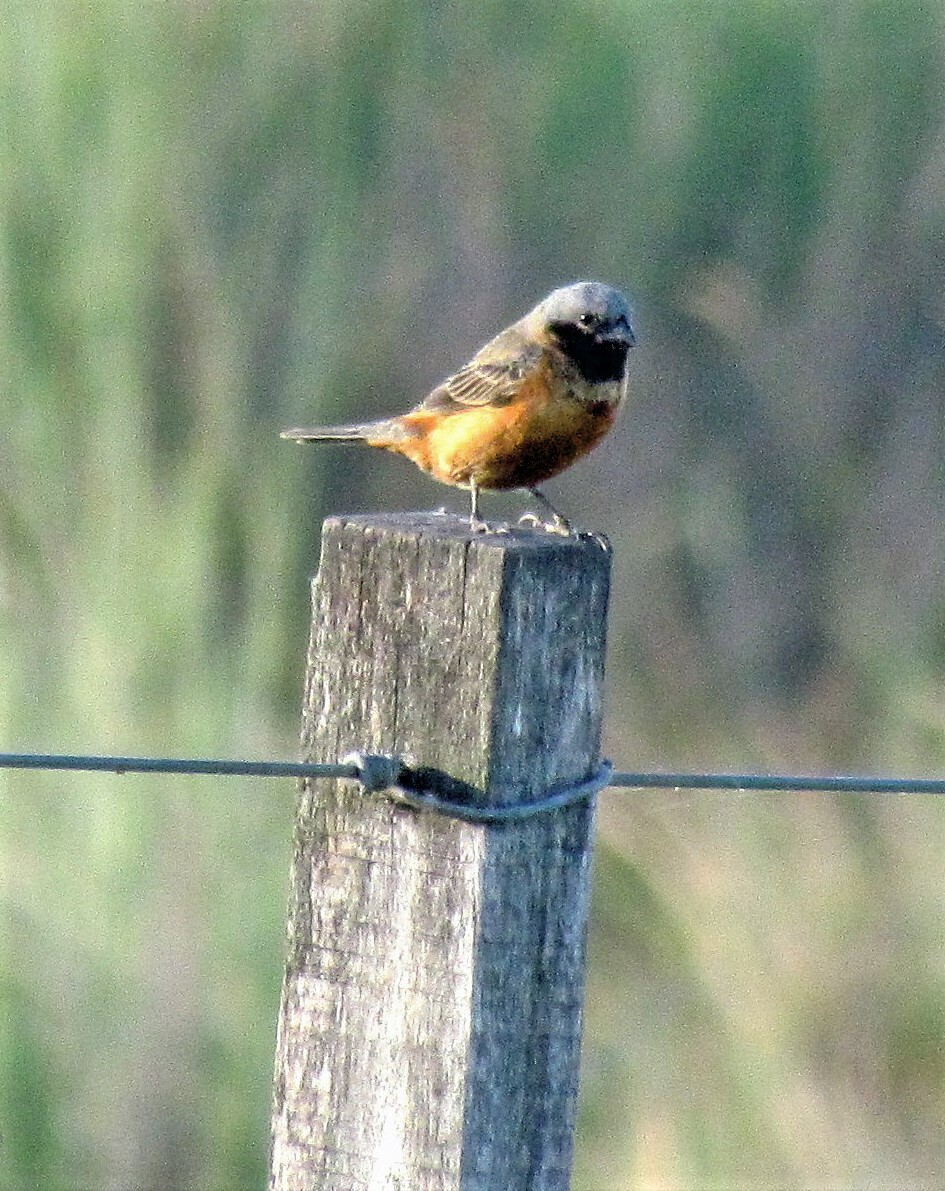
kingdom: Animalia
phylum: Chordata
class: Aves
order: Passeriformes
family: Thraupidae
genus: Sporophila
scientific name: Sporophila ruficollis
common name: Dark-throated seedeater
